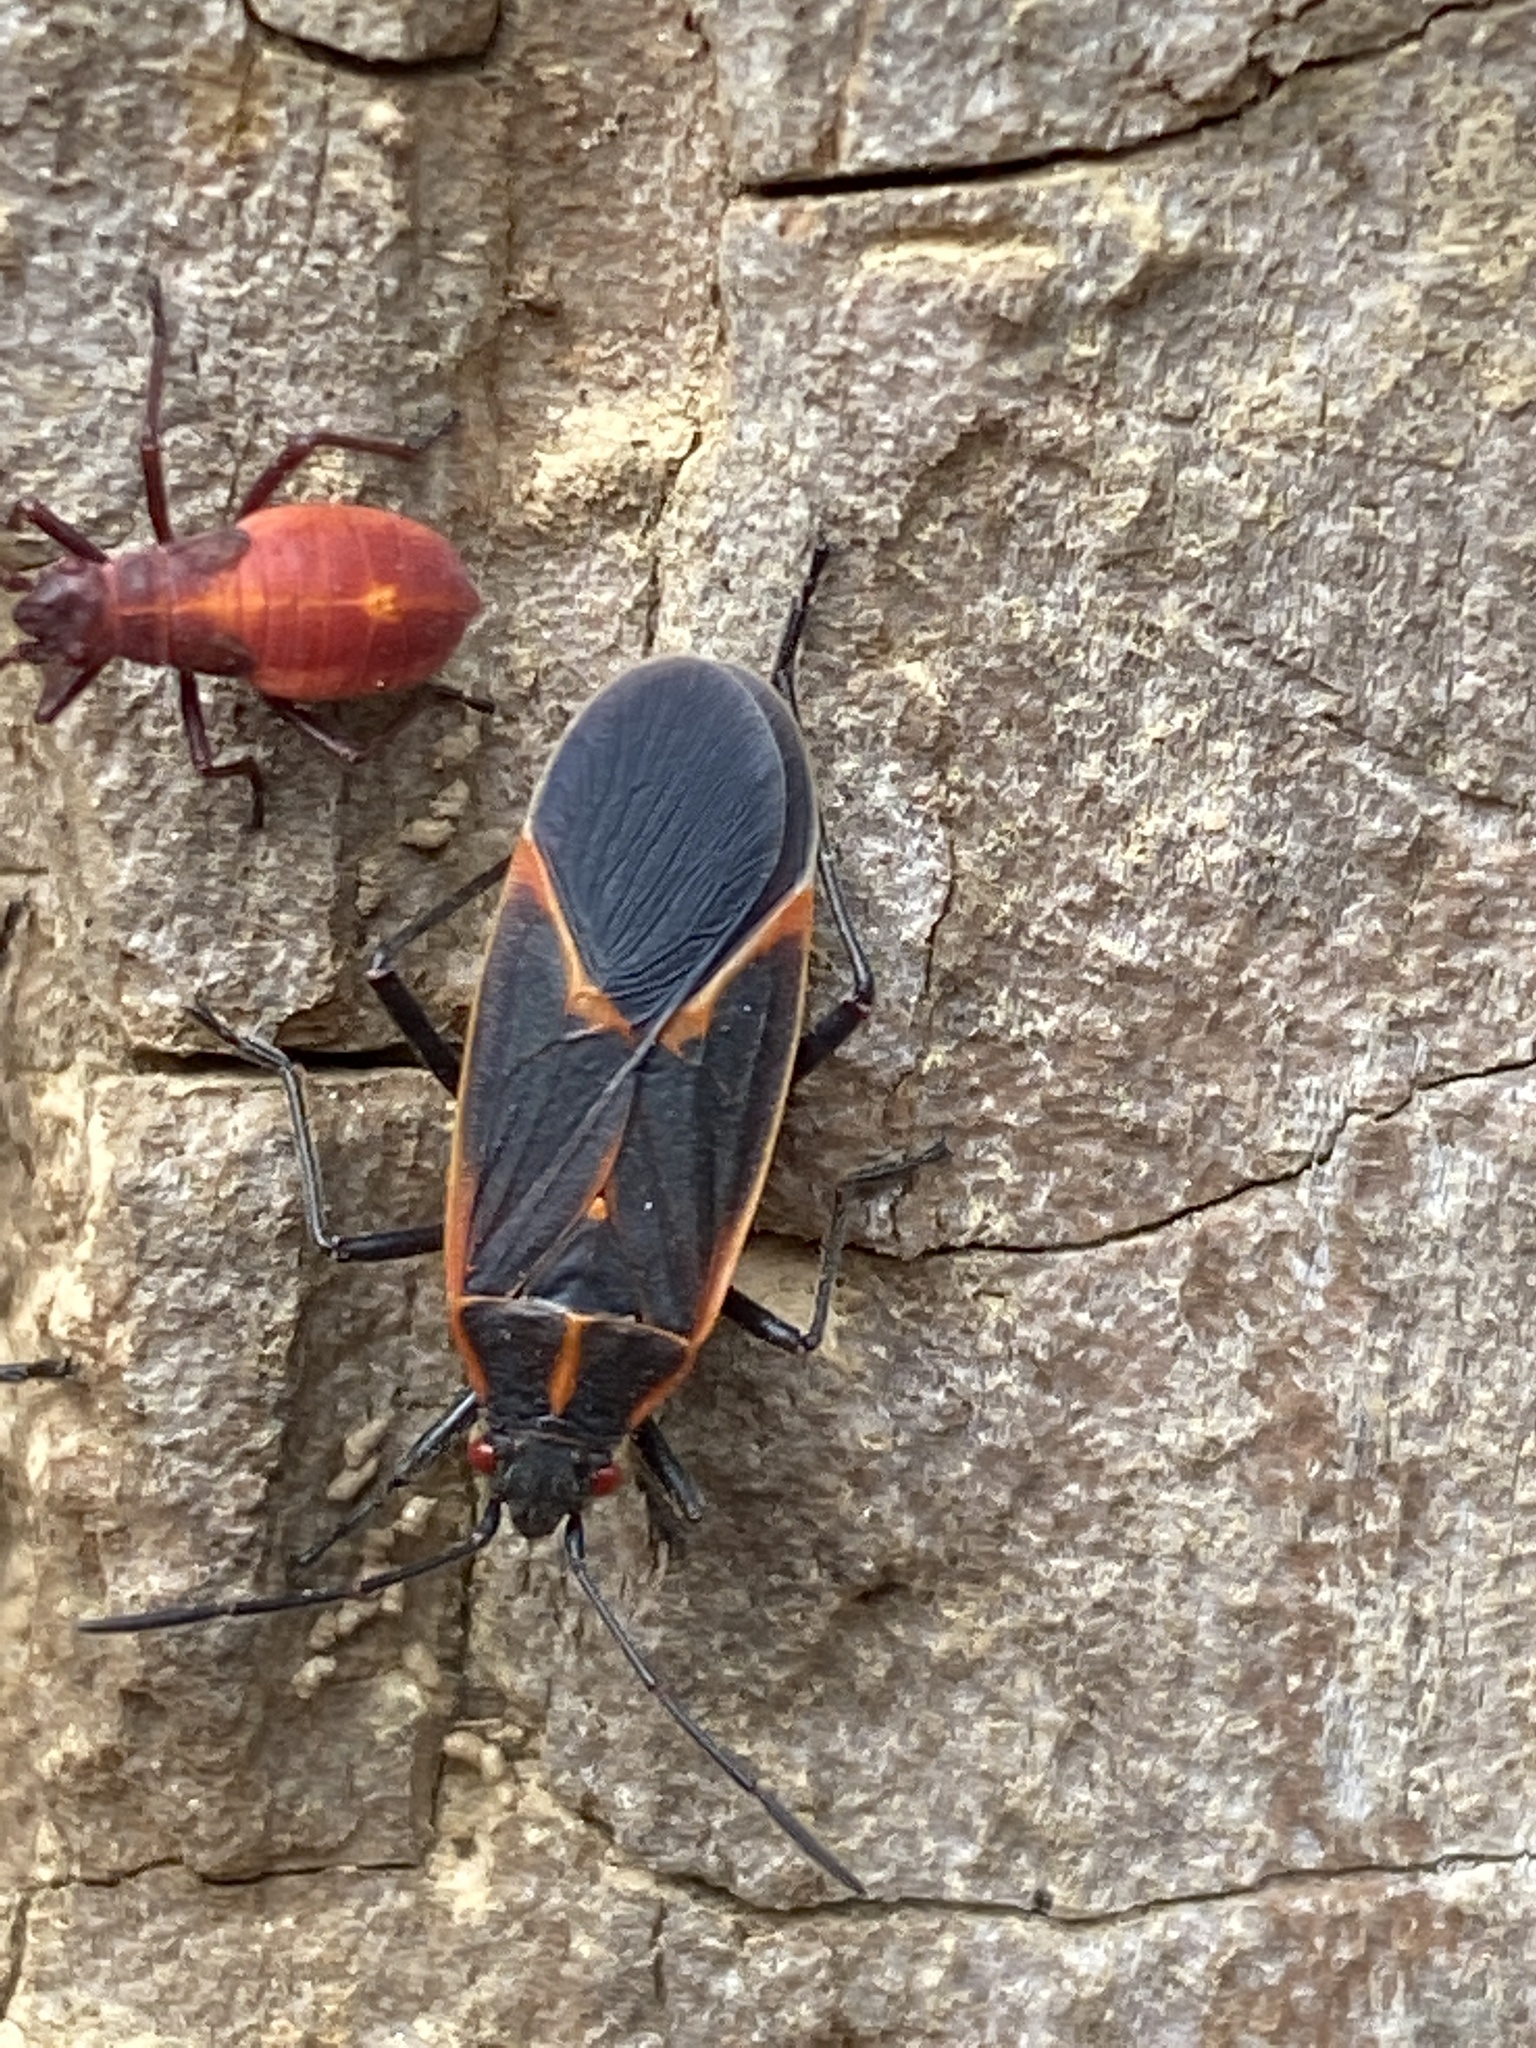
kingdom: Animalia
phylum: Arthropoda
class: Insecta
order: Hemiptera
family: Rhopalidae
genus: Boisea
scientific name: Boisea trivittata
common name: Boxelder bug
